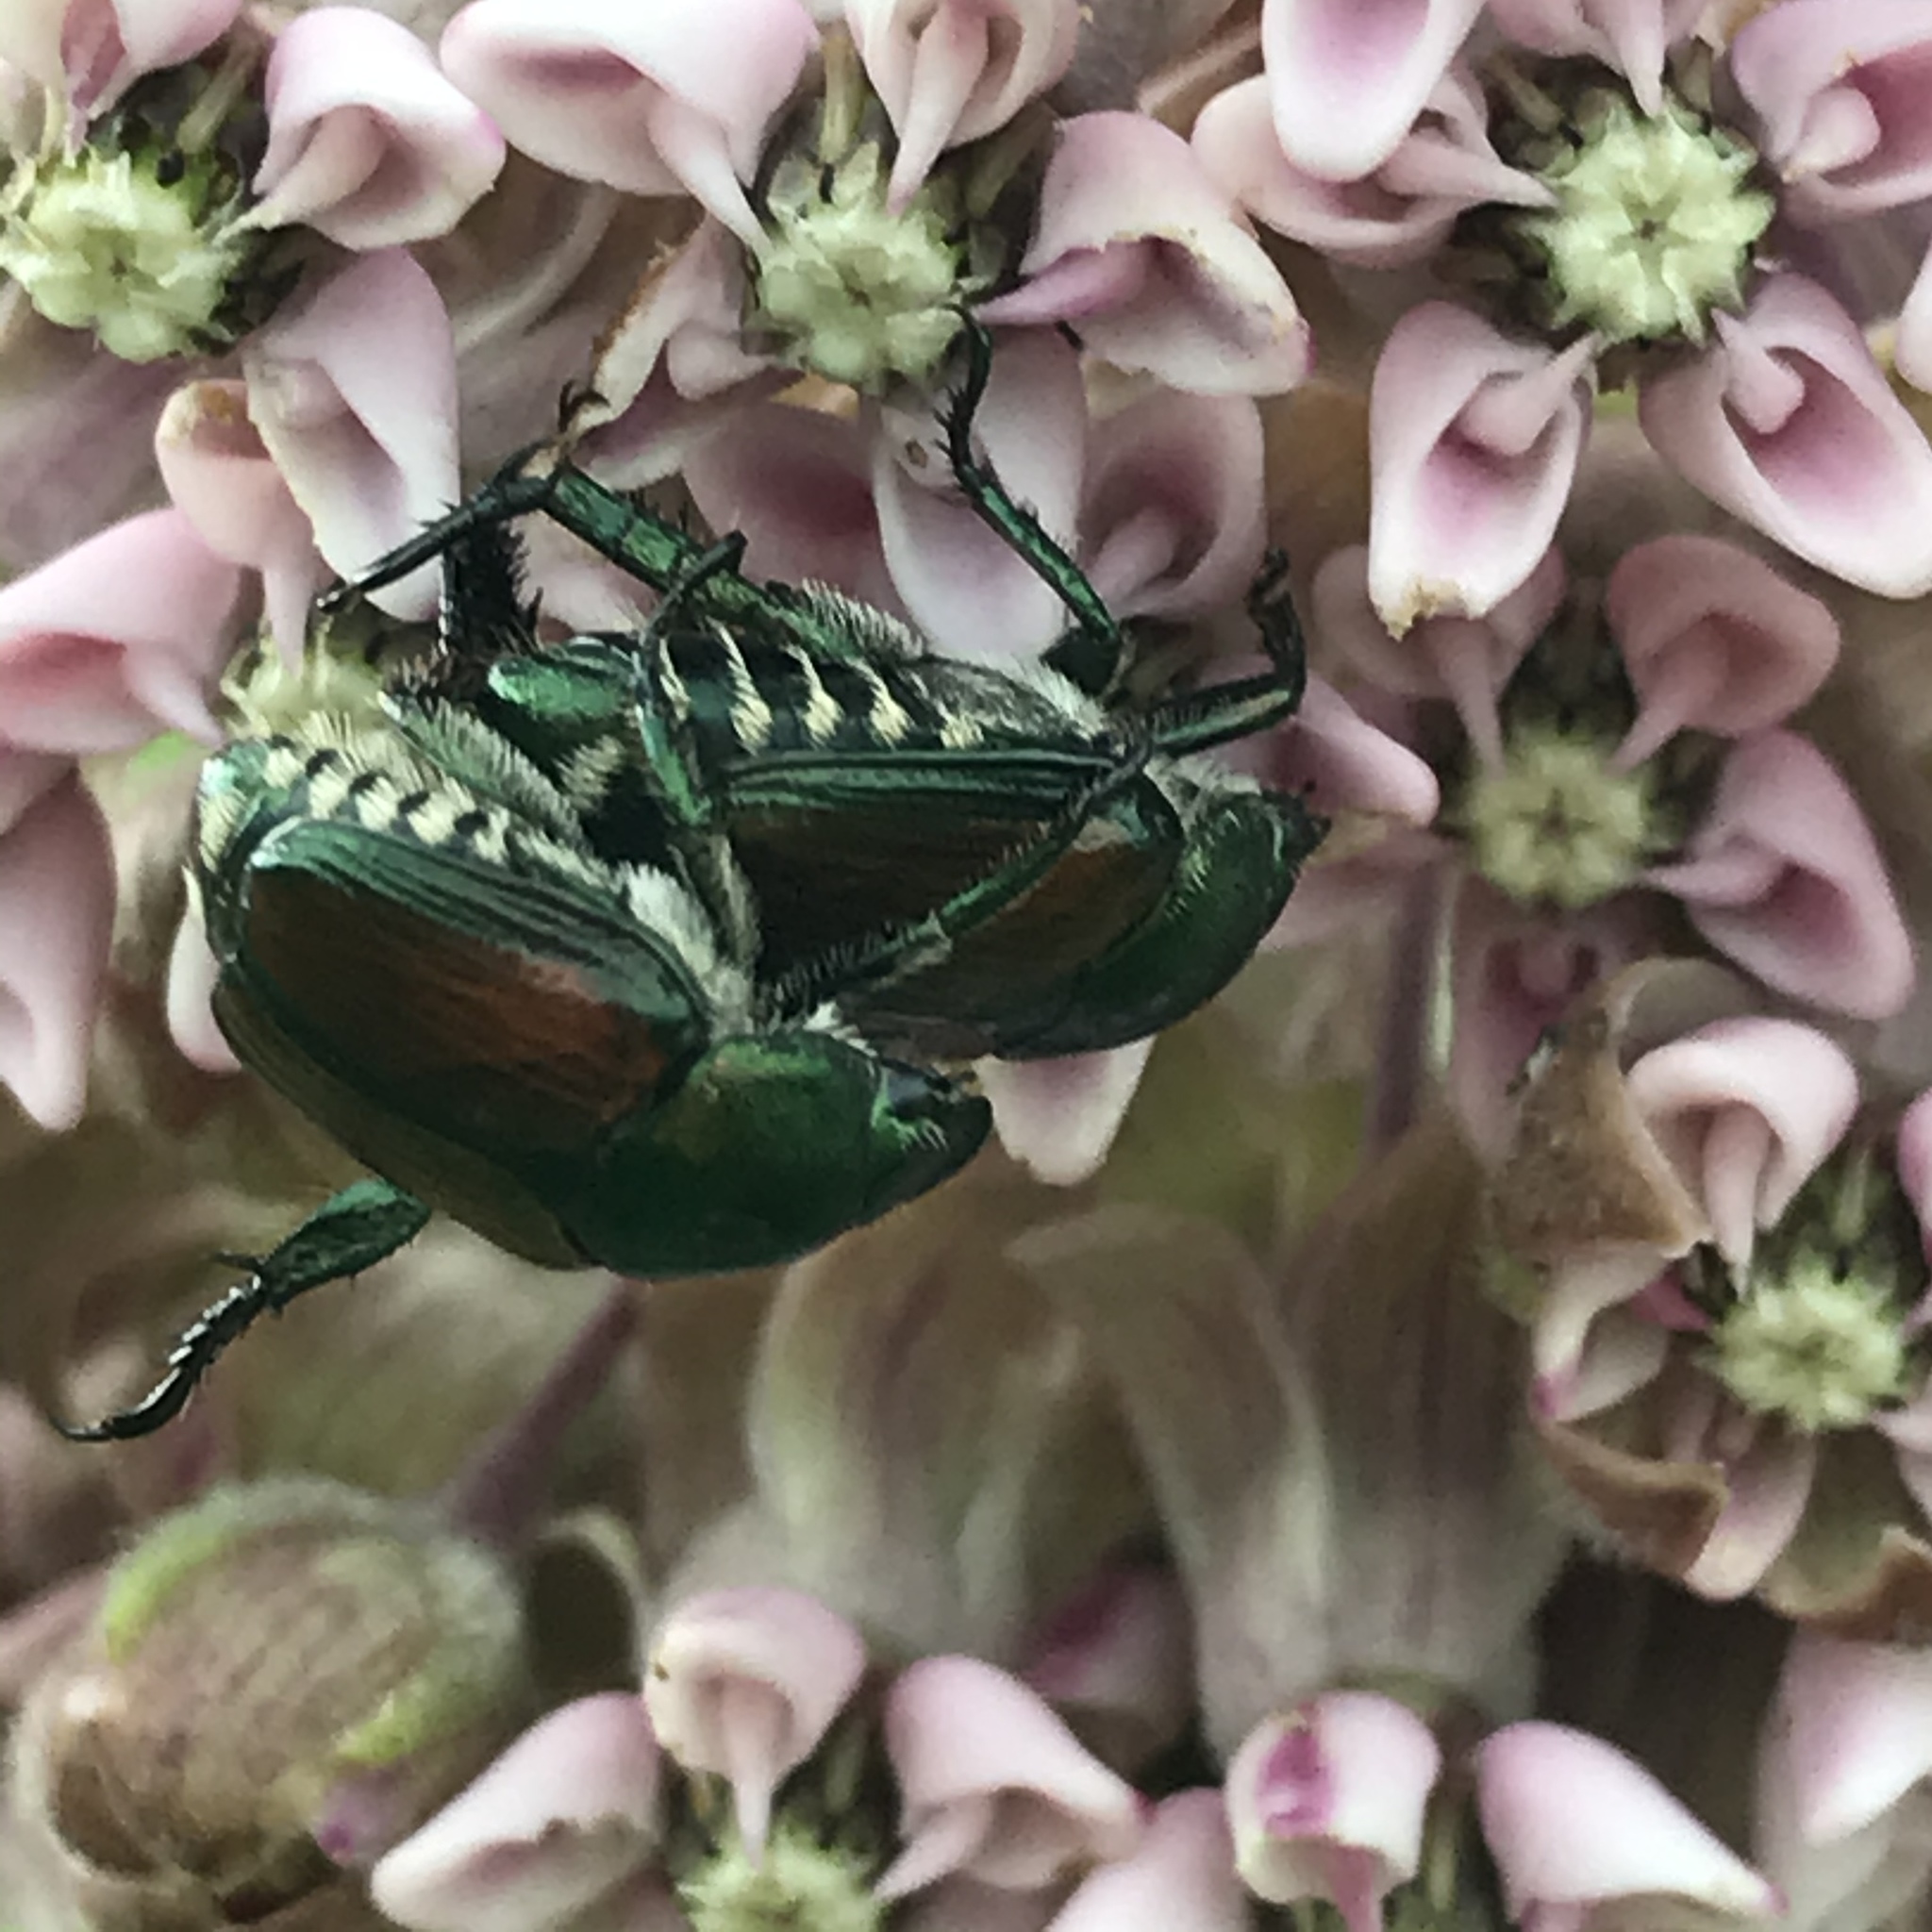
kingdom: Animalia
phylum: Arthropoda
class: Insecta
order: Coleoptera
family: Scarabaeidae
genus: Popillia
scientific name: Popillia japonica
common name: Japanese beetle
